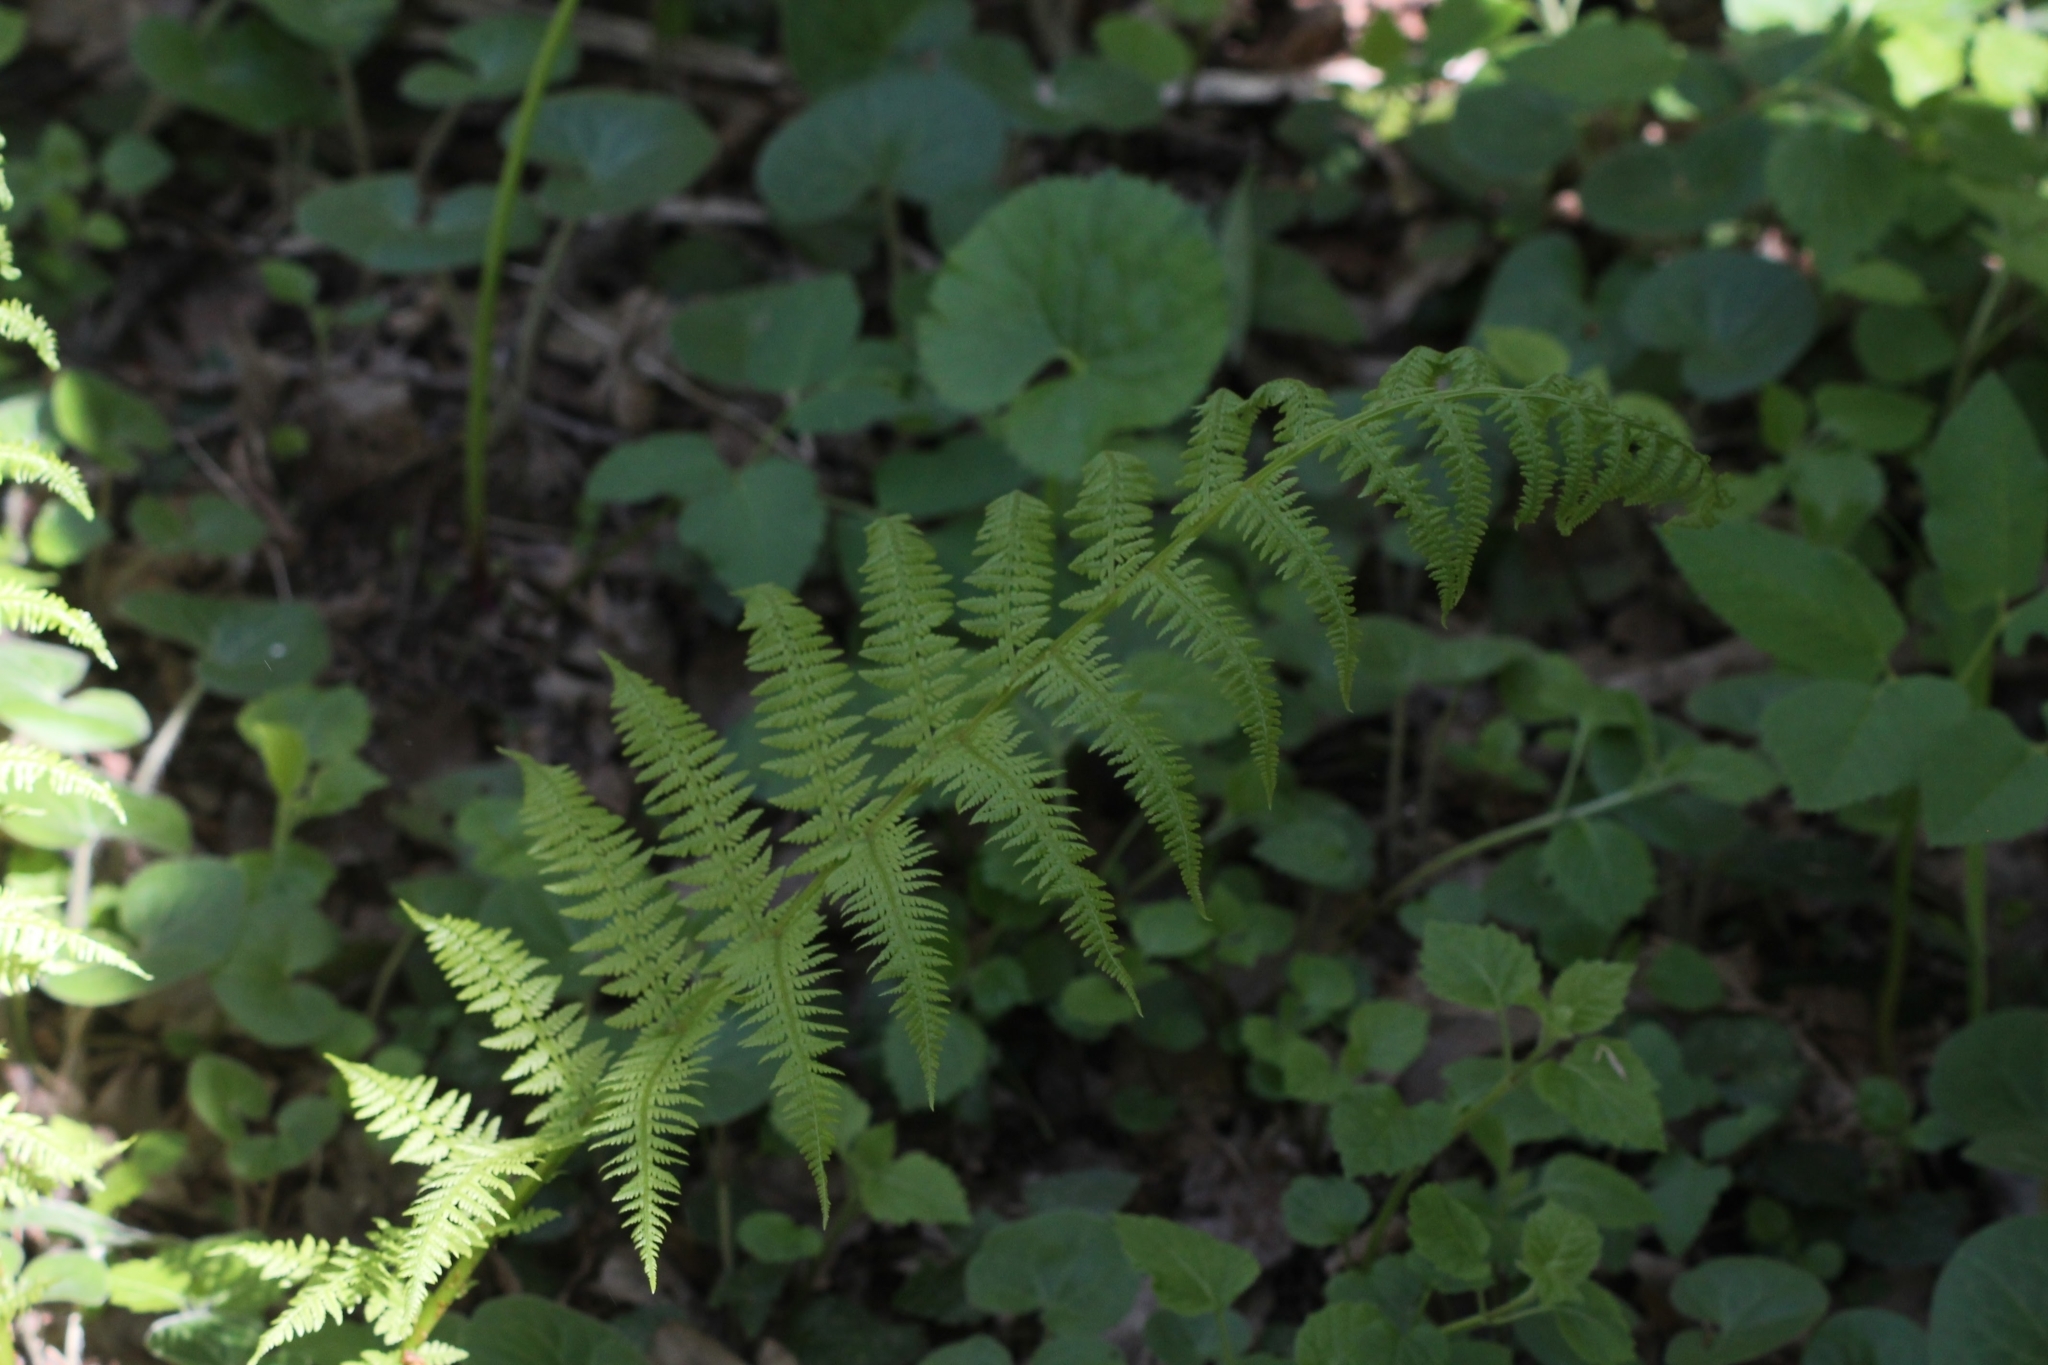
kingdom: Plantae
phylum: Tracheophyta
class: Polypodiopsida
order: Polypodiales
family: Athyriaceae
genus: Athyrium
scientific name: Athyrium filix-femina
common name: Lady fern
